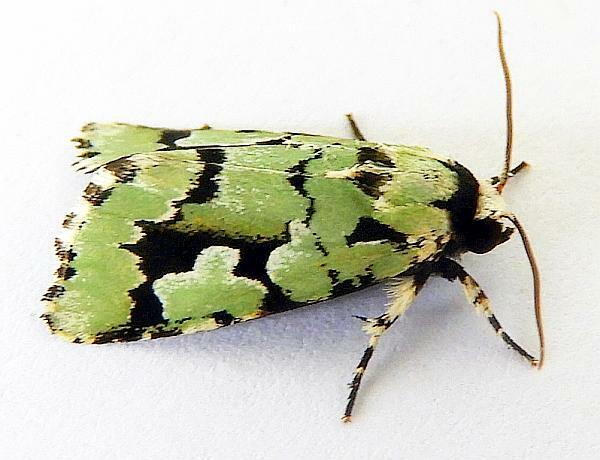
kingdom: Animalia
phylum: Arthropoda
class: Insecta
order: Lepidoptera
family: Noctuidae
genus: Emarginea
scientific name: Emarginea dulcinea
